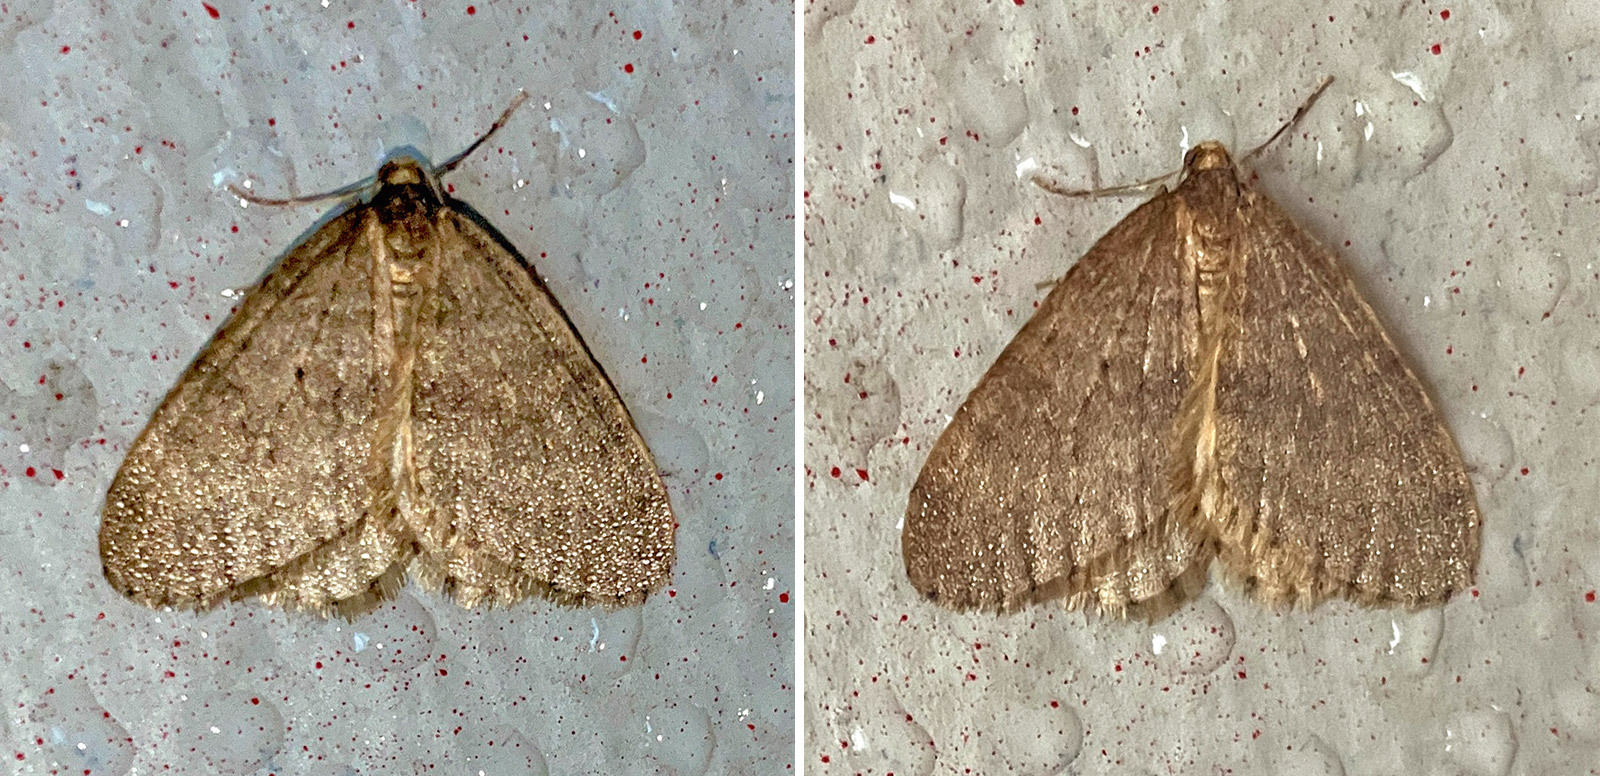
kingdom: Animalia
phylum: Arthropoda
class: Insecta
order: Lepidoptera
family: Geometridae
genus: Operophtera
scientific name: Operophtera brumata
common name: Winter moth
